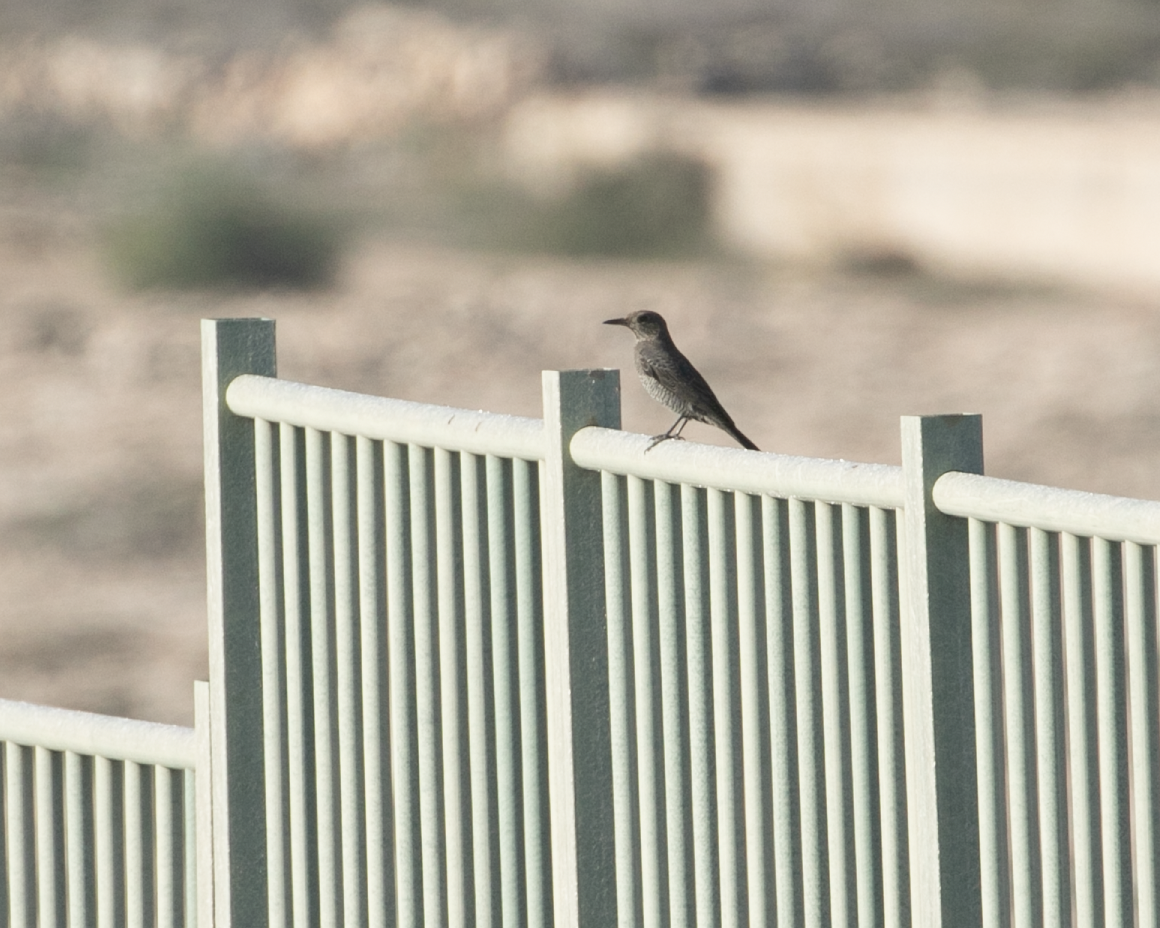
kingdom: Animalia
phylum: Chordata
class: Aves
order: Passeriformes
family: Muscicapidae
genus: Monticola
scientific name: Monticola solitarius
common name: Blue rock thrush
